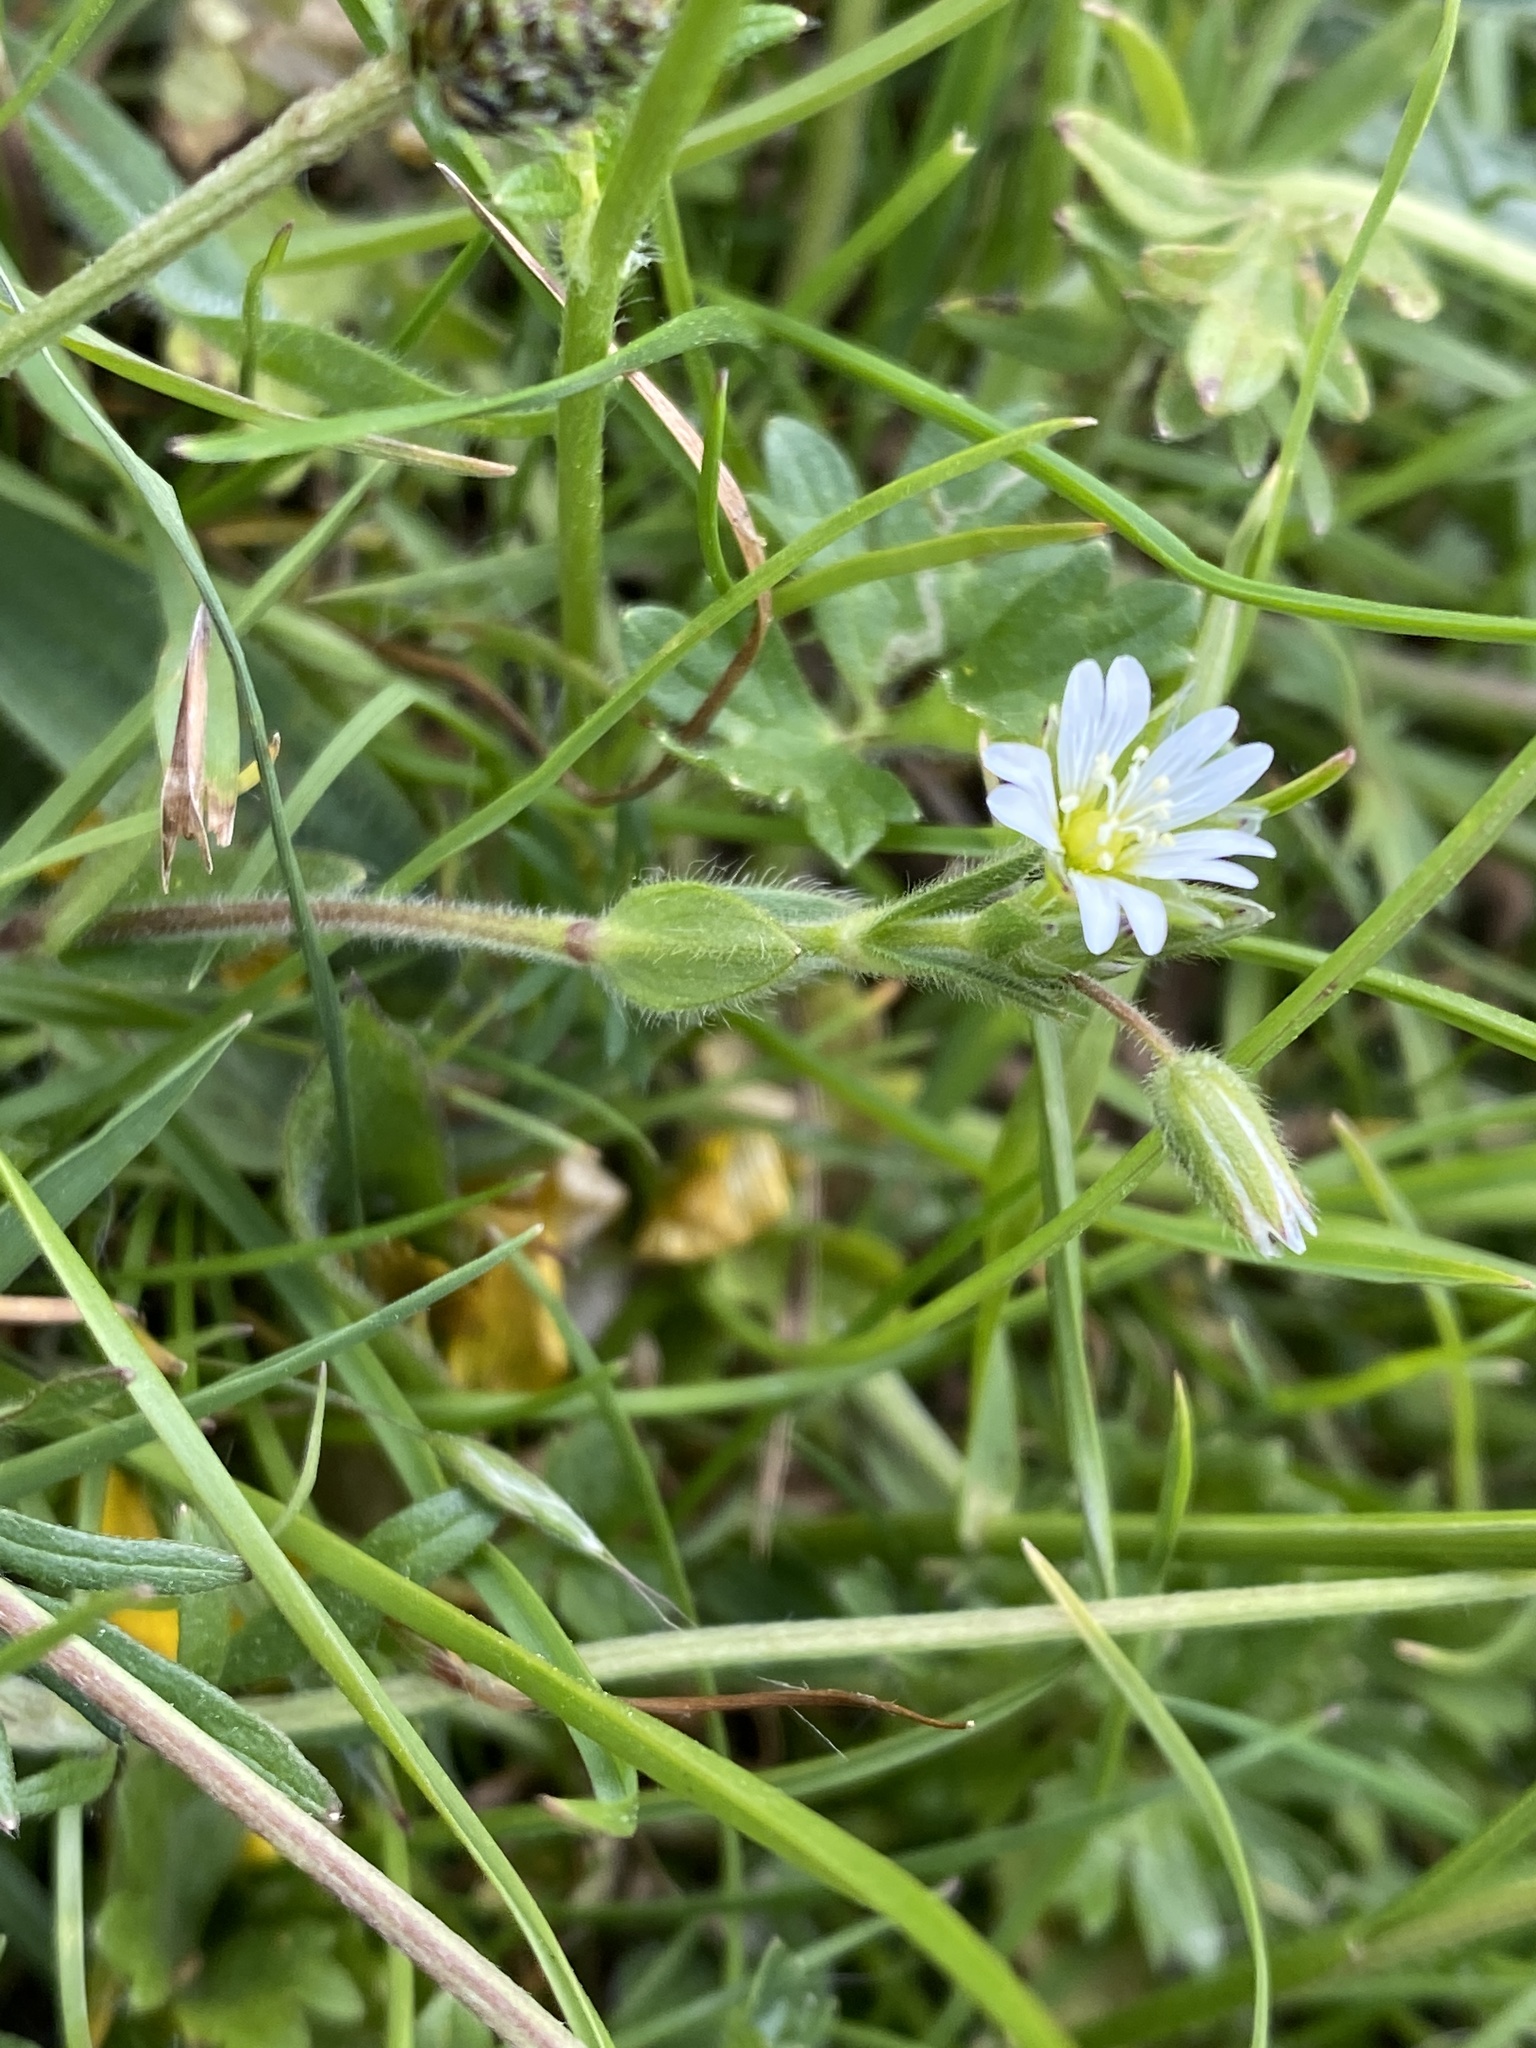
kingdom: Plantae
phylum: Tracheophyta
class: Magnoliopsida
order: Caryophyllales
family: Caryophyllaceae
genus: Cerastium
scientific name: Cerastium fontanum
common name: Common mouse-ear
